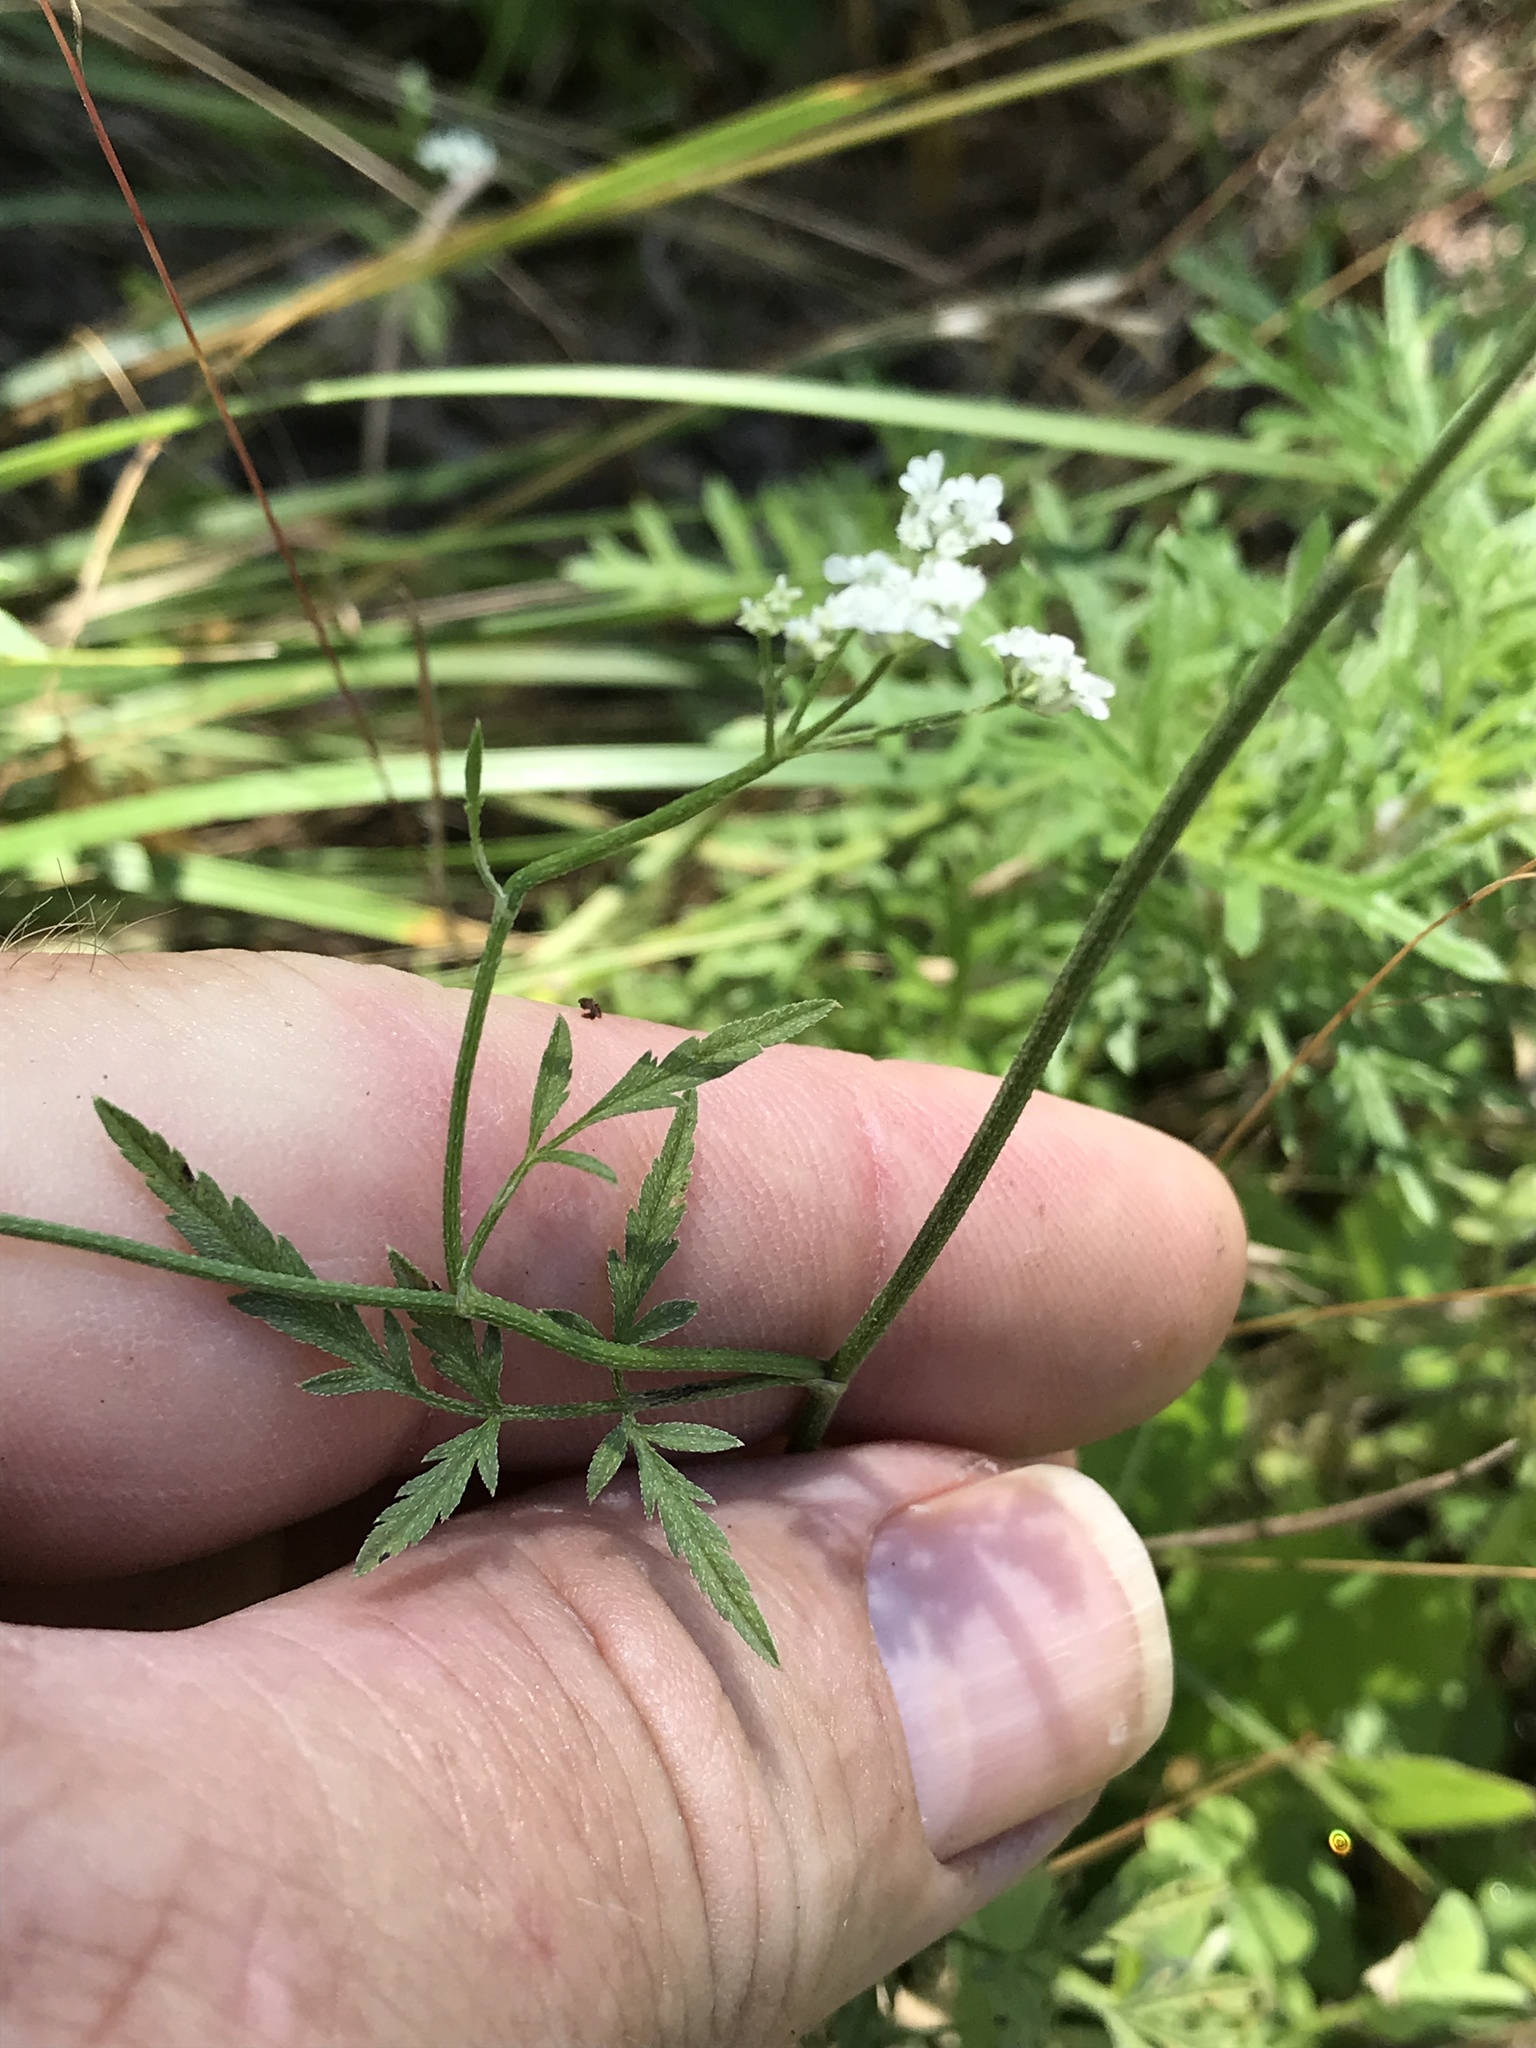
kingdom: Plantae
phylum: Tracheophyta
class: Magnoliopsida
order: Apiales
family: Apiaceae
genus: Torilis
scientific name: Torilis arvensis
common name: Spreading hedge-parsley
